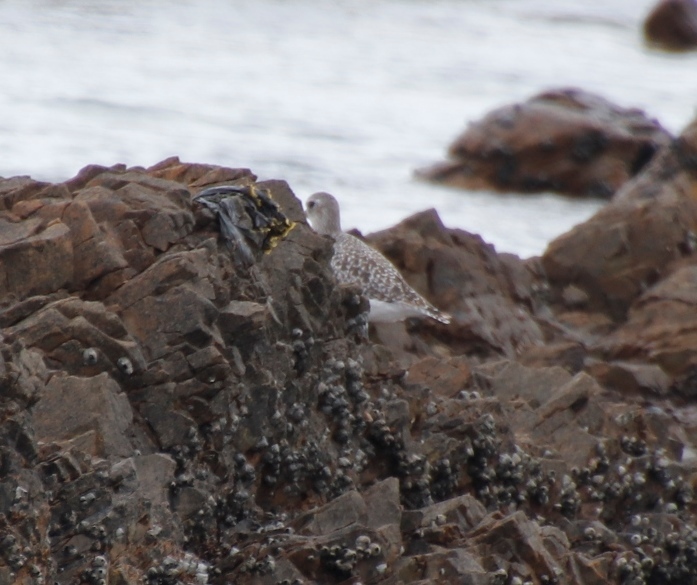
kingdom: Animalia
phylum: Chordata
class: Aves
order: Charadriiformes
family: Charadriidae
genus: Pluvialis
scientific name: Pluvialis squatarola
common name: Grey plover
